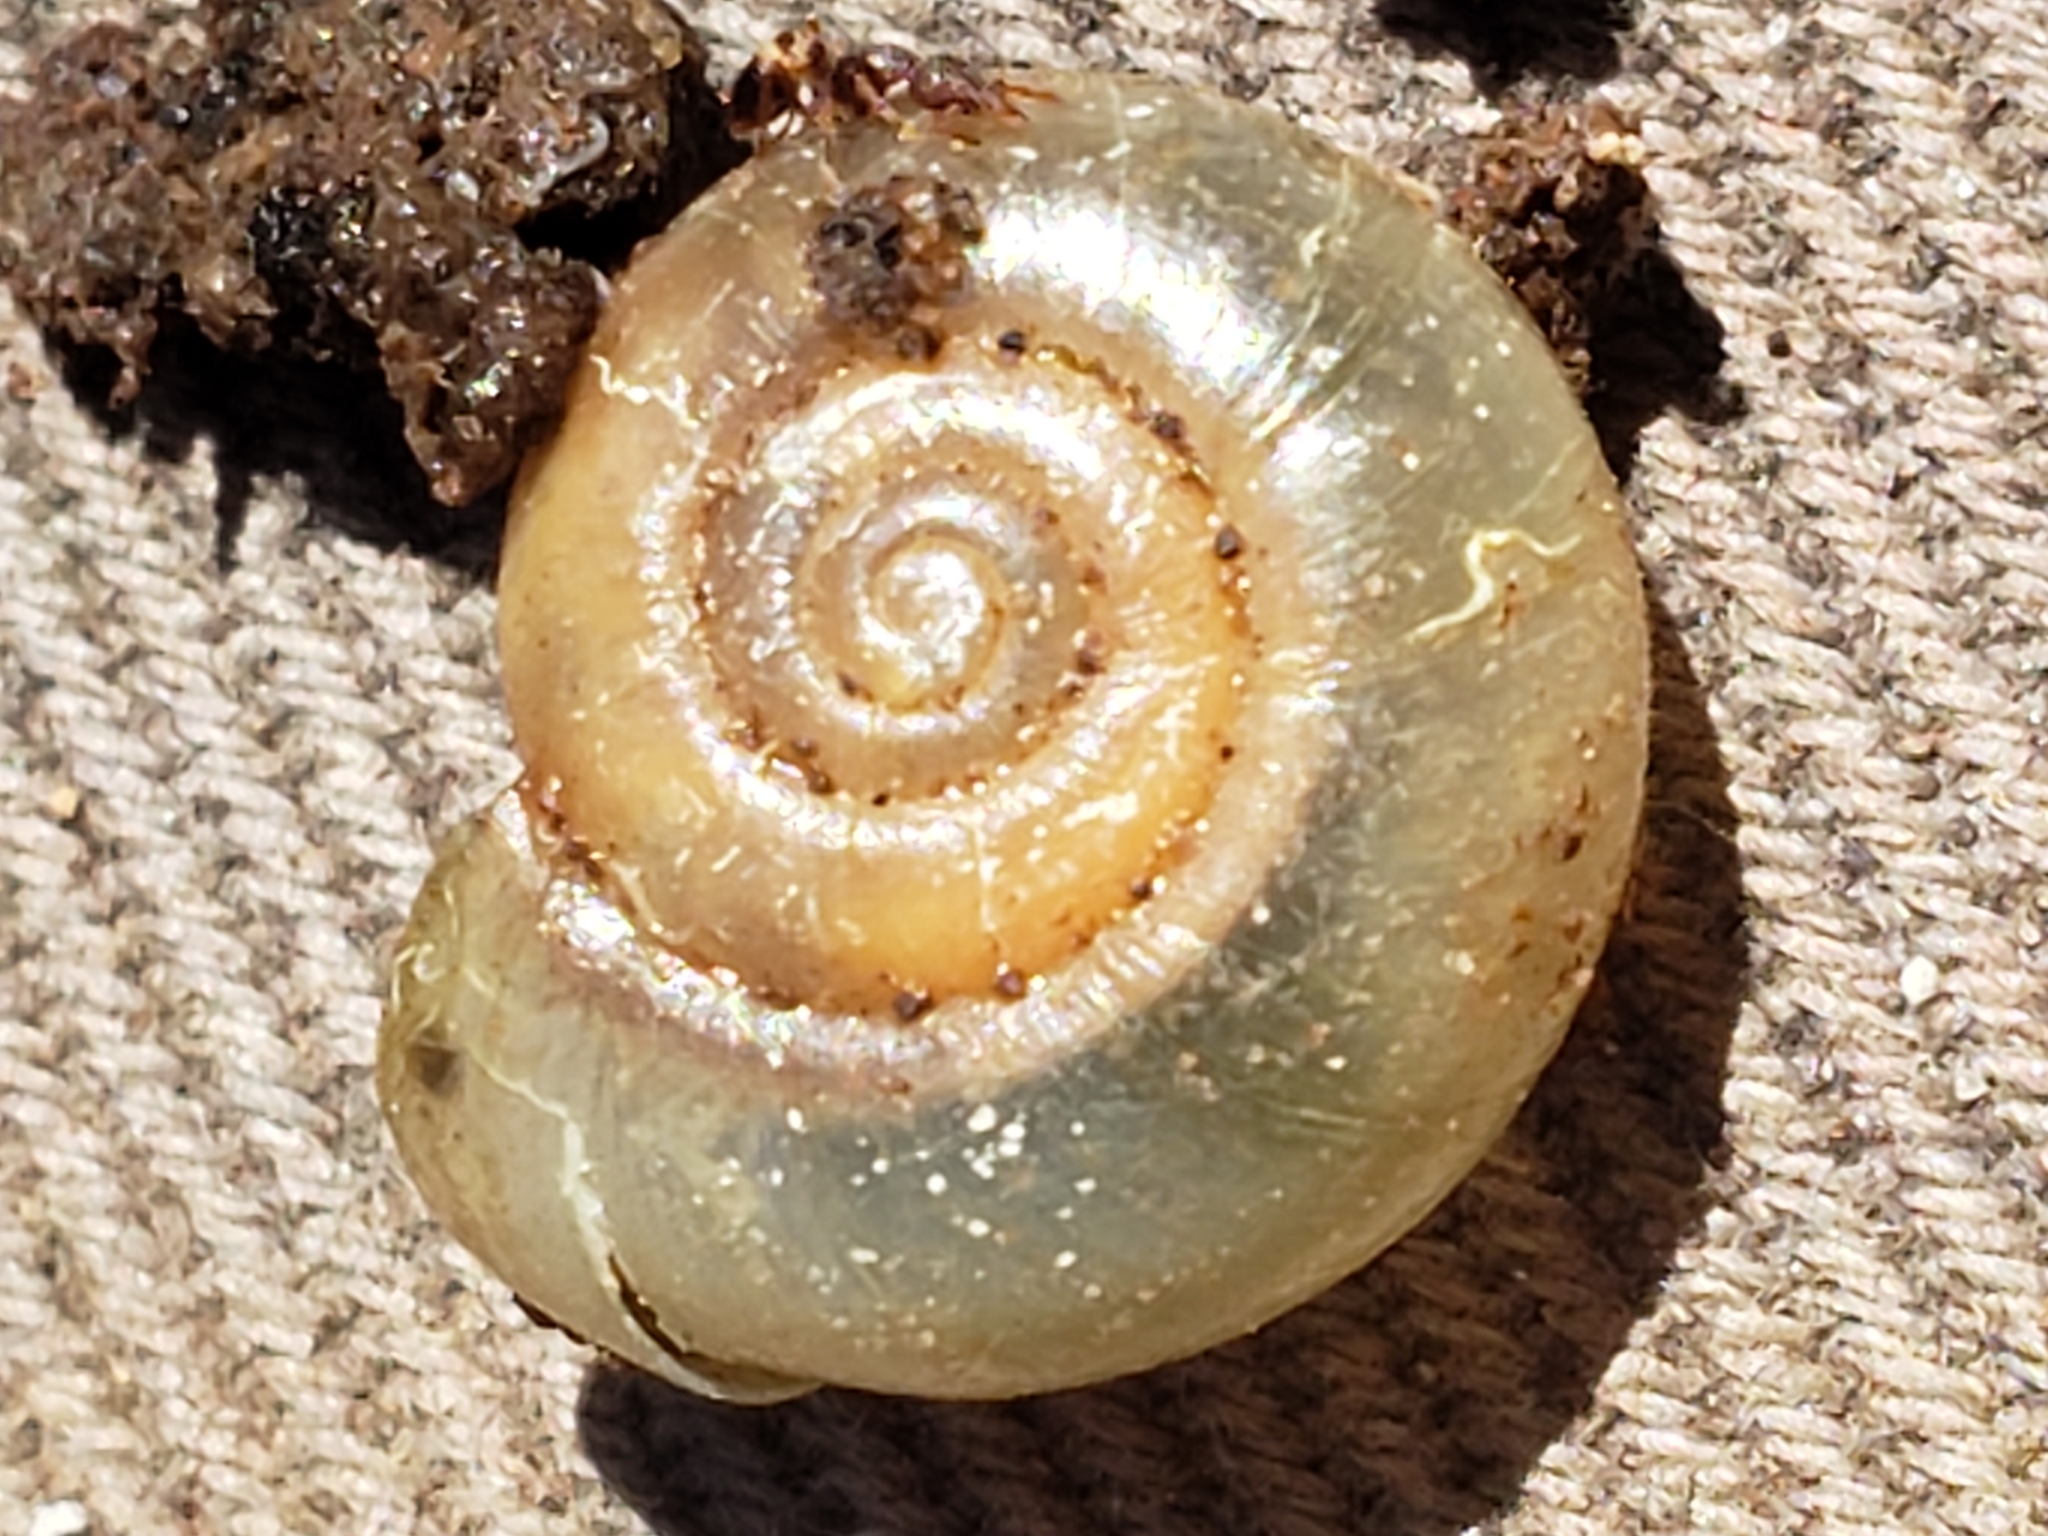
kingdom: Animalia
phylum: Mollusca
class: Gastropoda
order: Stylommatophora
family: Haplotrematidae
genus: Haplotrema
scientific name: Haplotrema concavum
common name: Gray-foot lancetooth
